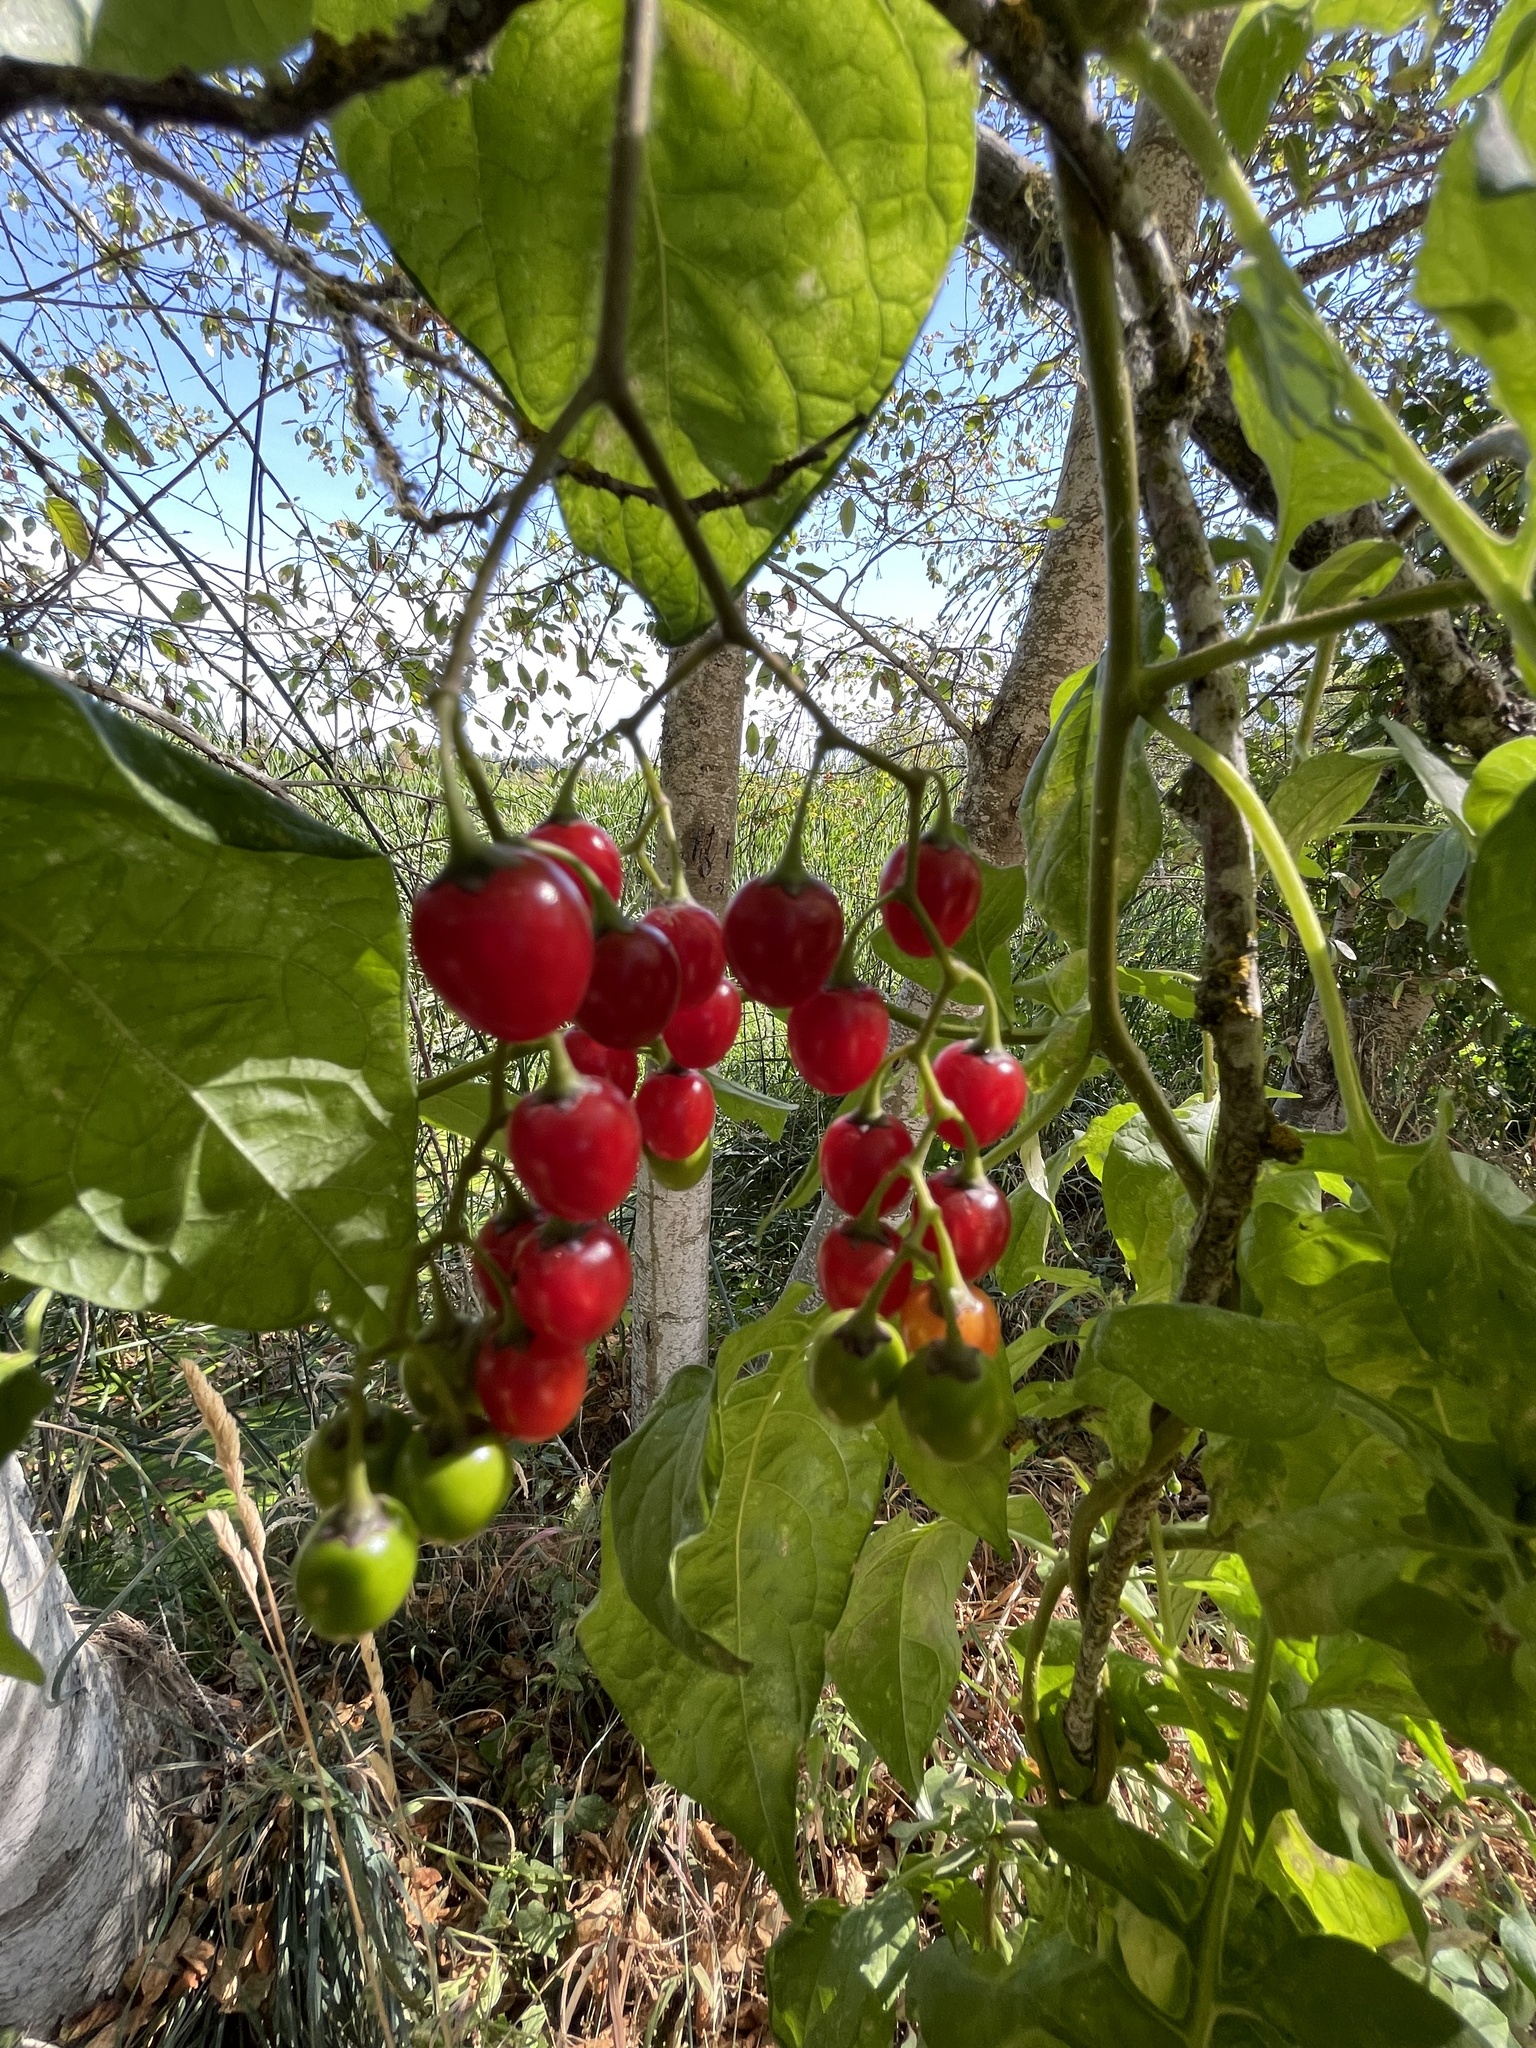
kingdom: Plantae
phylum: Tracheophyta
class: Magnoliopsida
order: Solanales
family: Solanaceae
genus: Solanum
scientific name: Solanum dulcamara
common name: Climbing nightshade
